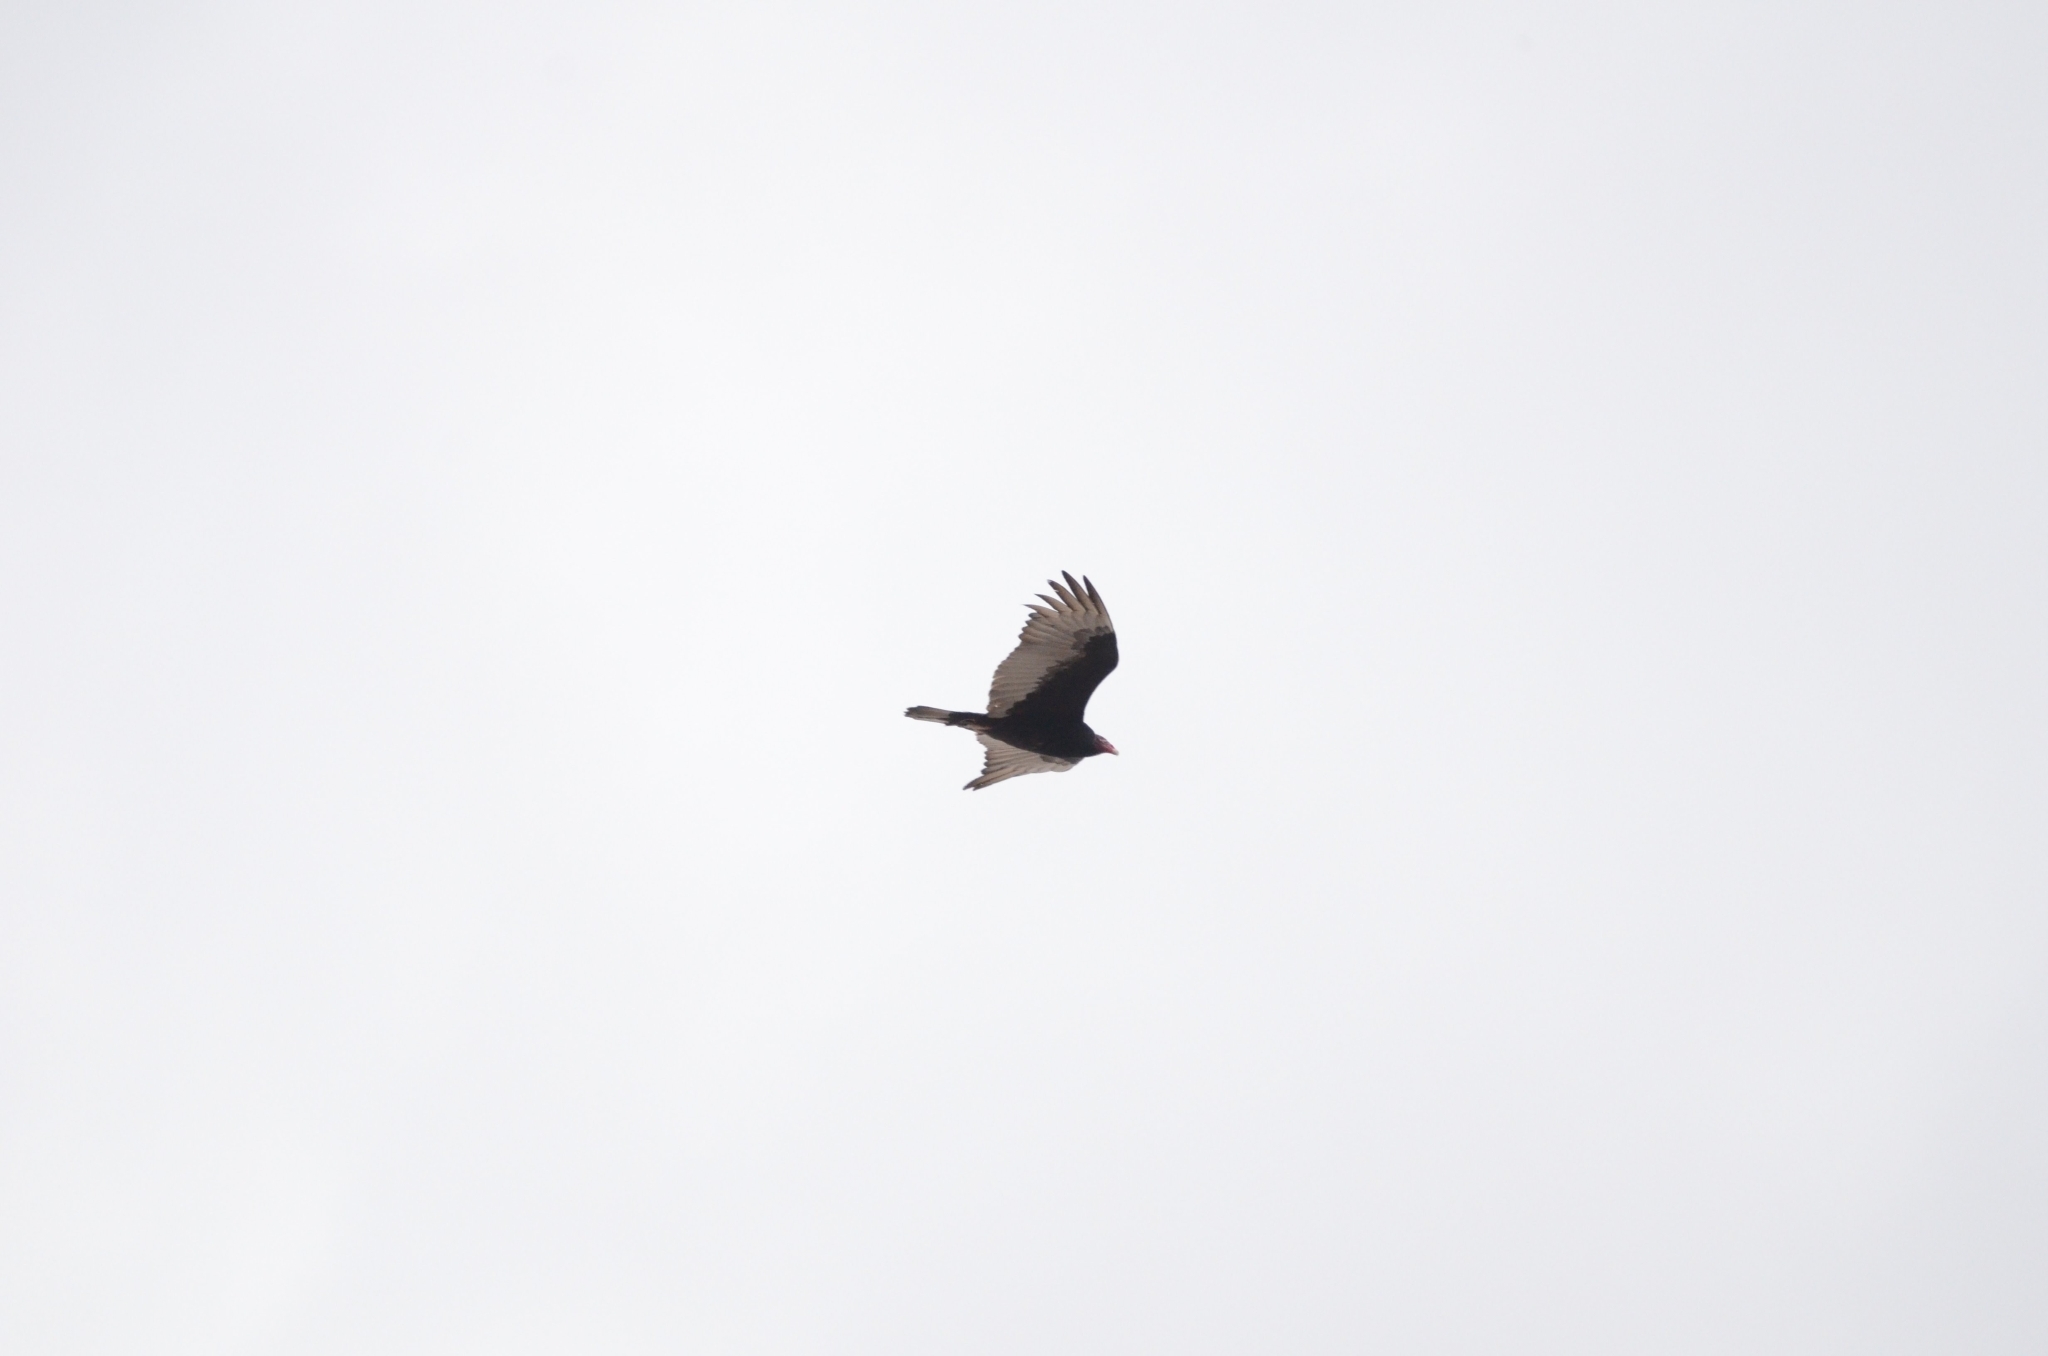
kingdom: Animalia
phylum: Chordata
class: Aves
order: Accipitriformes
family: Cathartidae
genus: Cathartes
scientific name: Cathartes aura
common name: Turkey vulture
